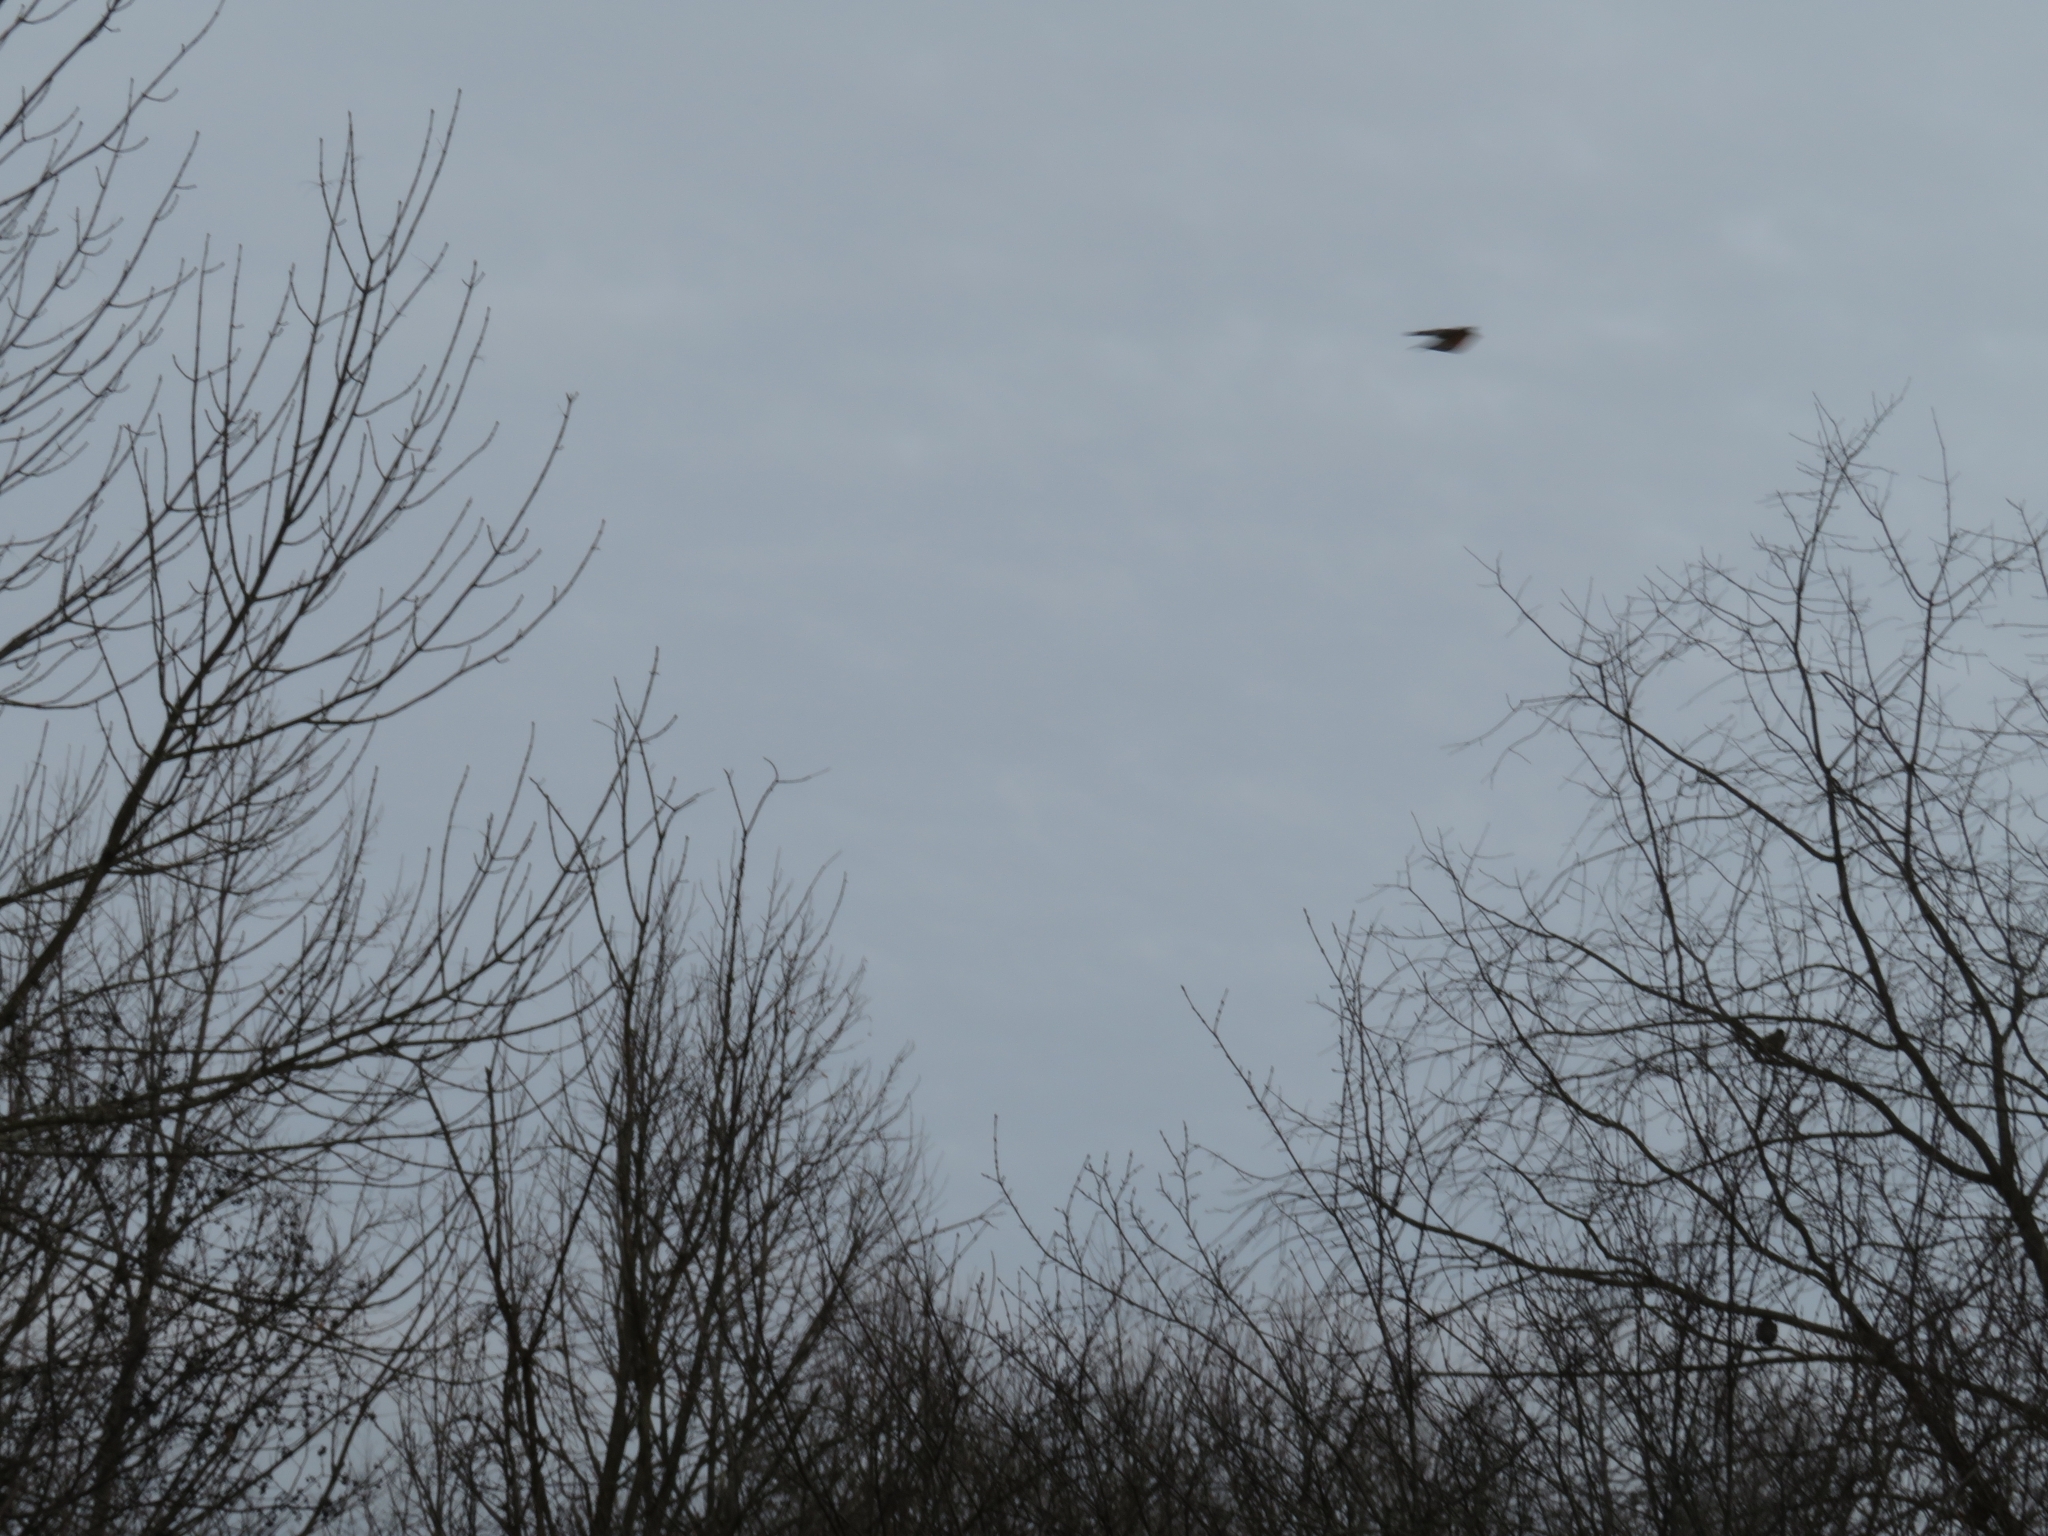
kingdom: Animalia
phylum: Chordata
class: Aves
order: Passeriformes
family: Turdidae
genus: Turdus
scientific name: Turdus migratorius
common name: American robin
